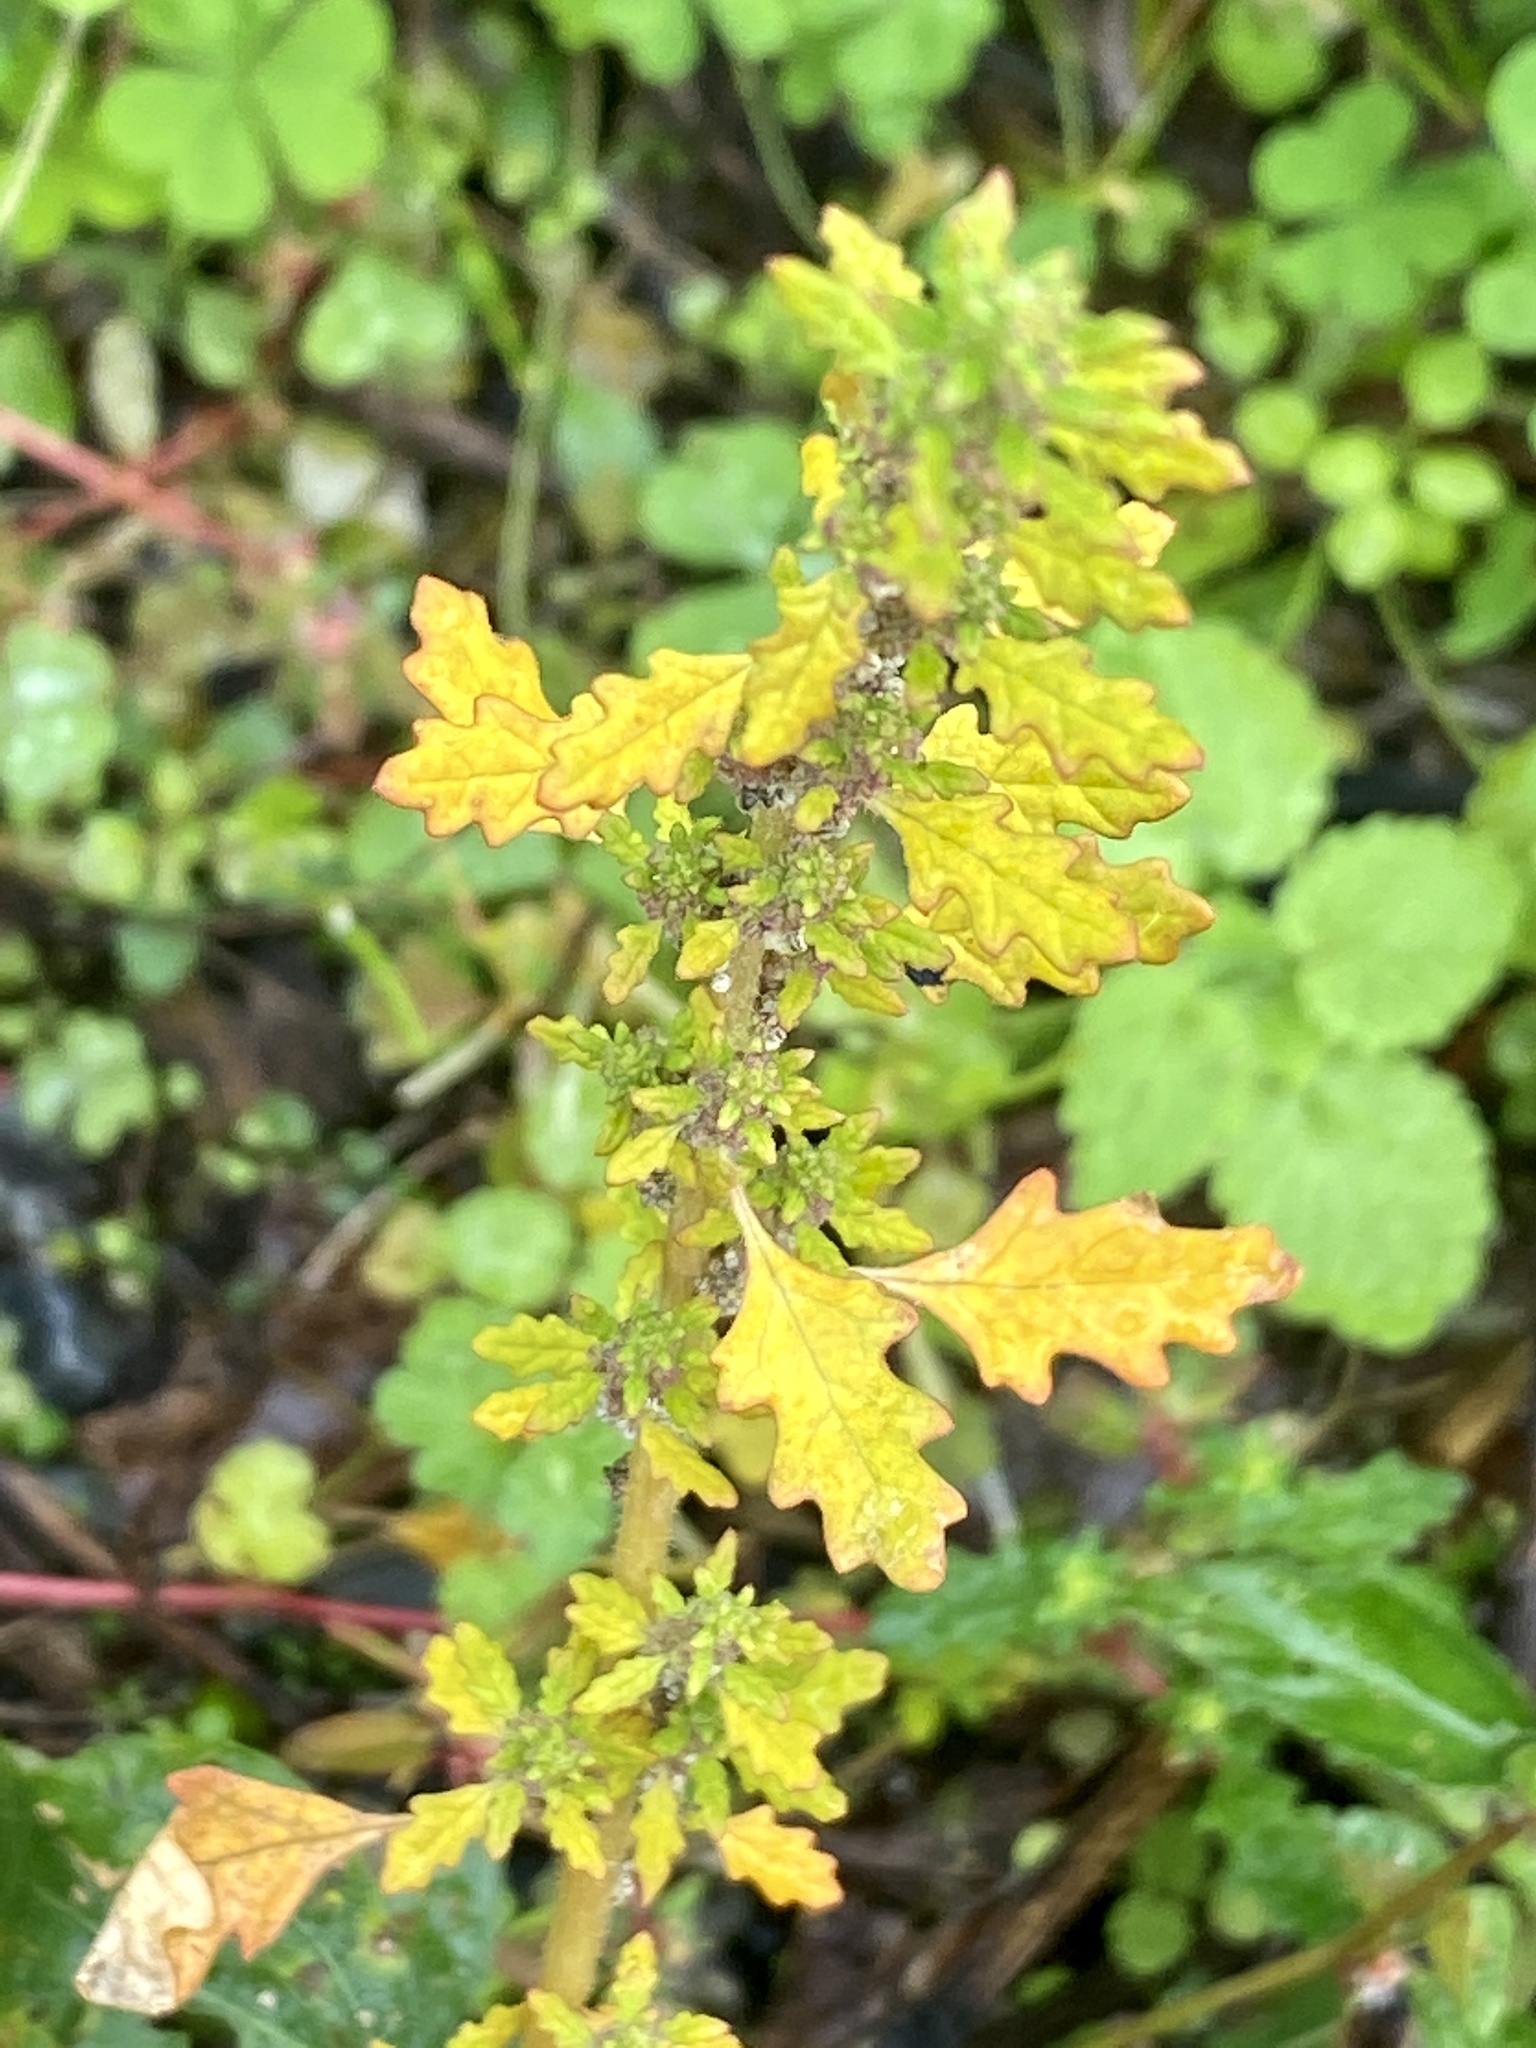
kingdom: Plantae
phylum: Tracheophyta
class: Magnoliopsida
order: Caryophyllales
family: Amaranthaceae
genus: Dysphania
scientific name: Dysphania pumilio
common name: Clammy goosefoot
